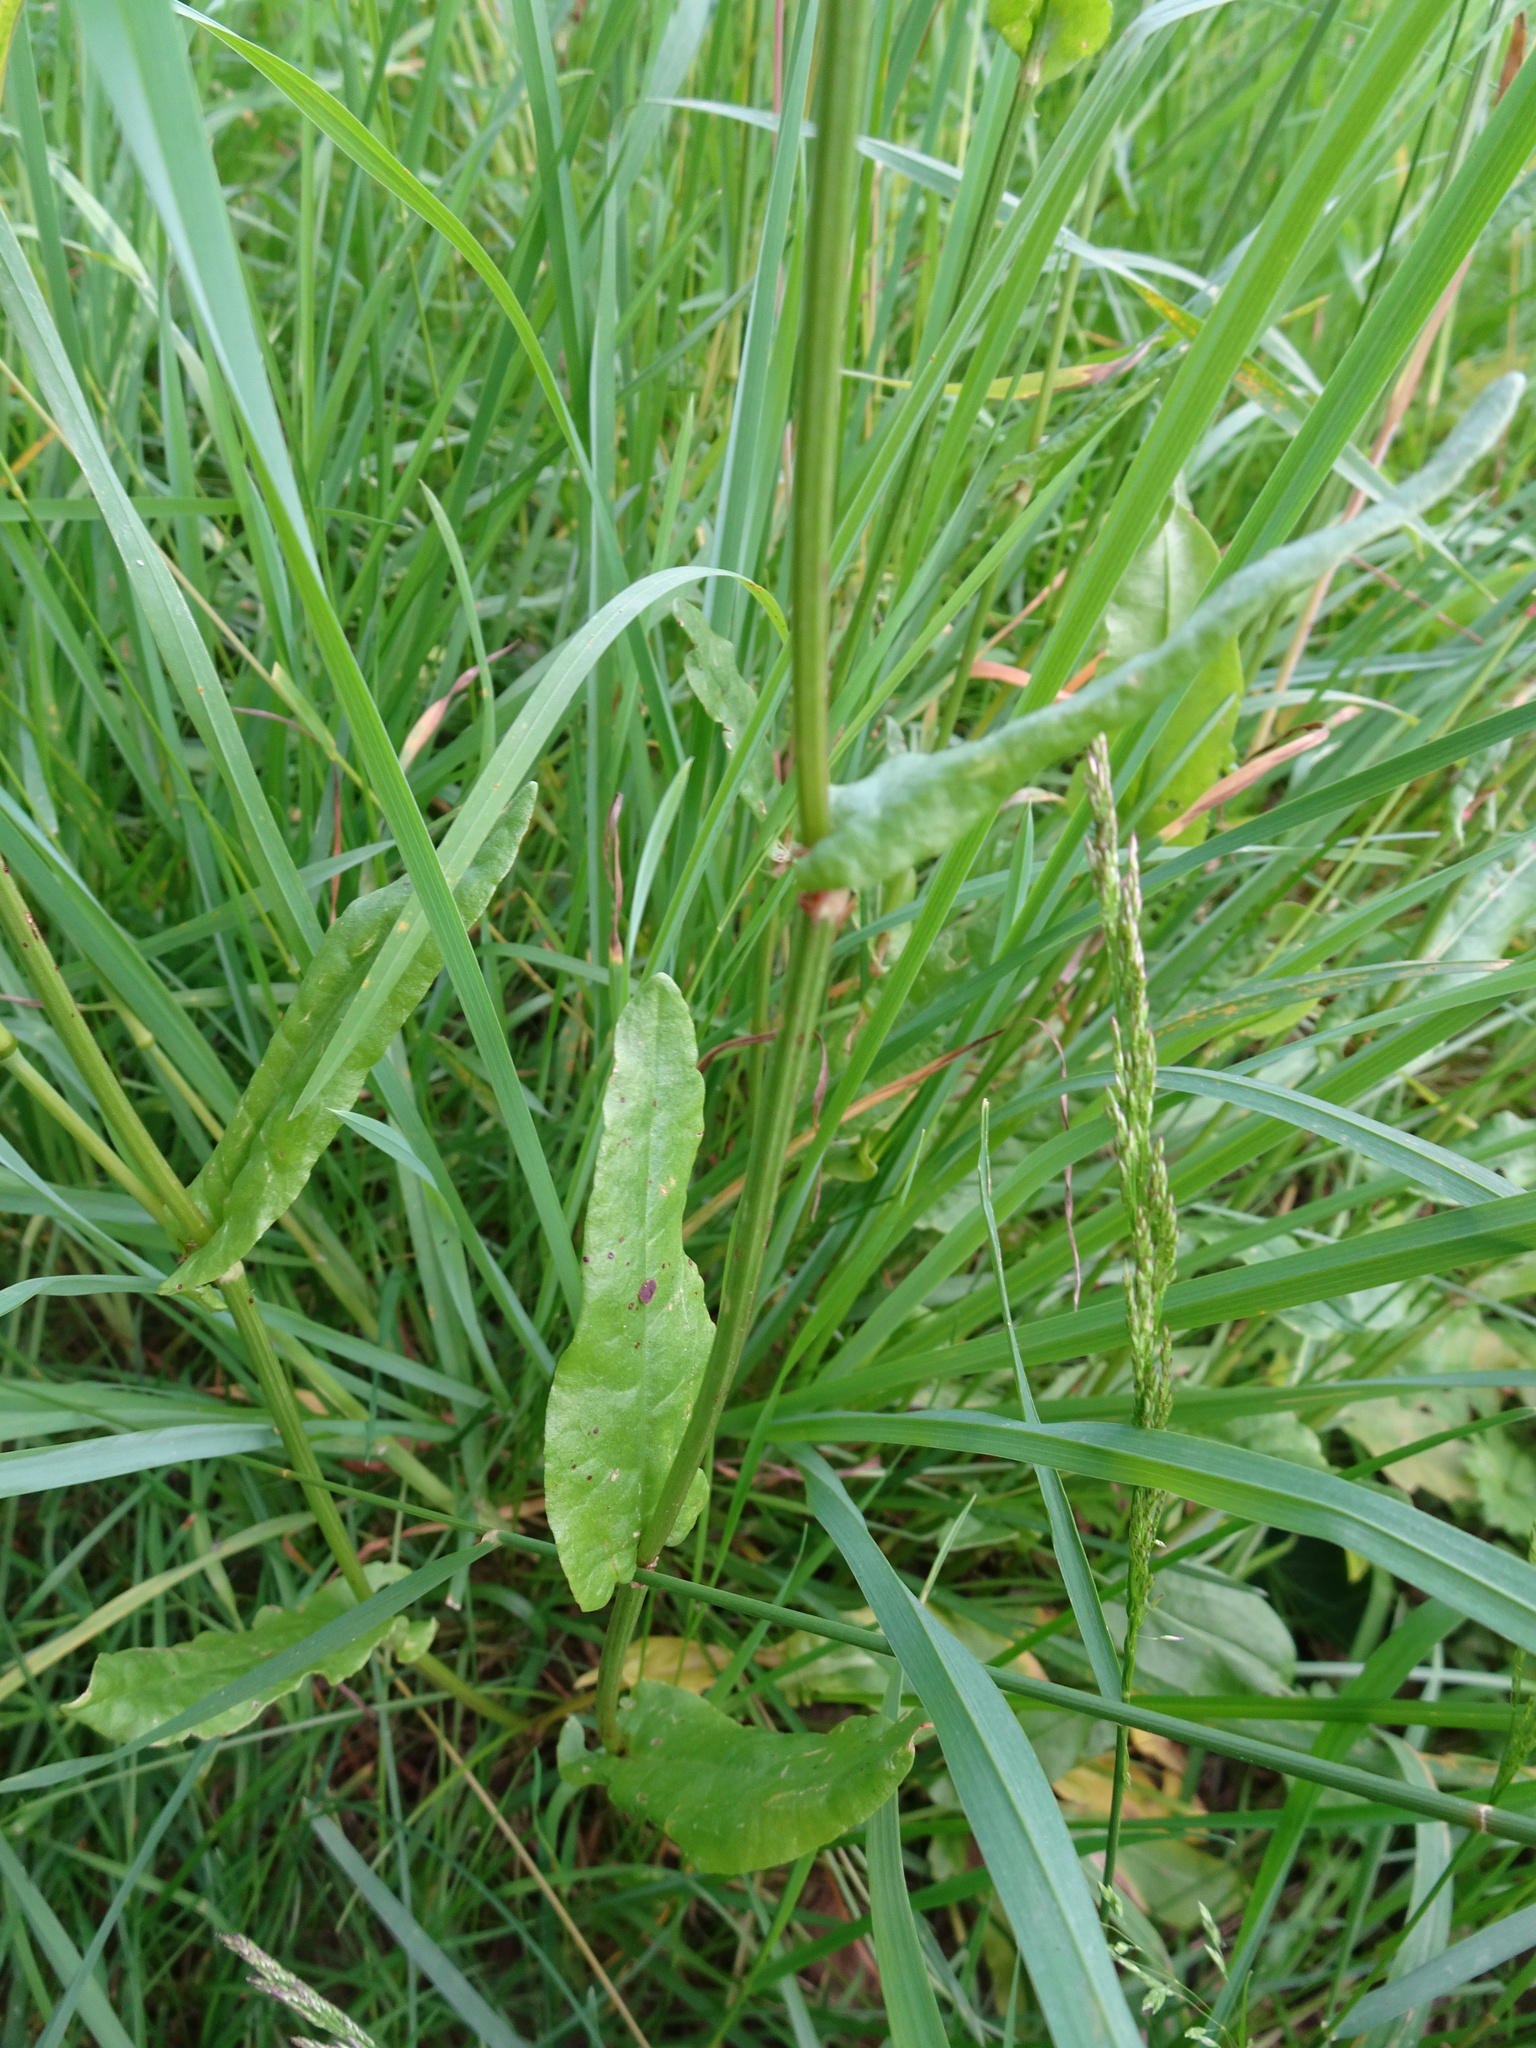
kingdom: Plantae
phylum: Tracheophyta
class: Magnoliopsida
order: Caryophyllales
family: Polygonaceae
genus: Rumex
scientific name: Rumex acetosa
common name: Garden sorrel
